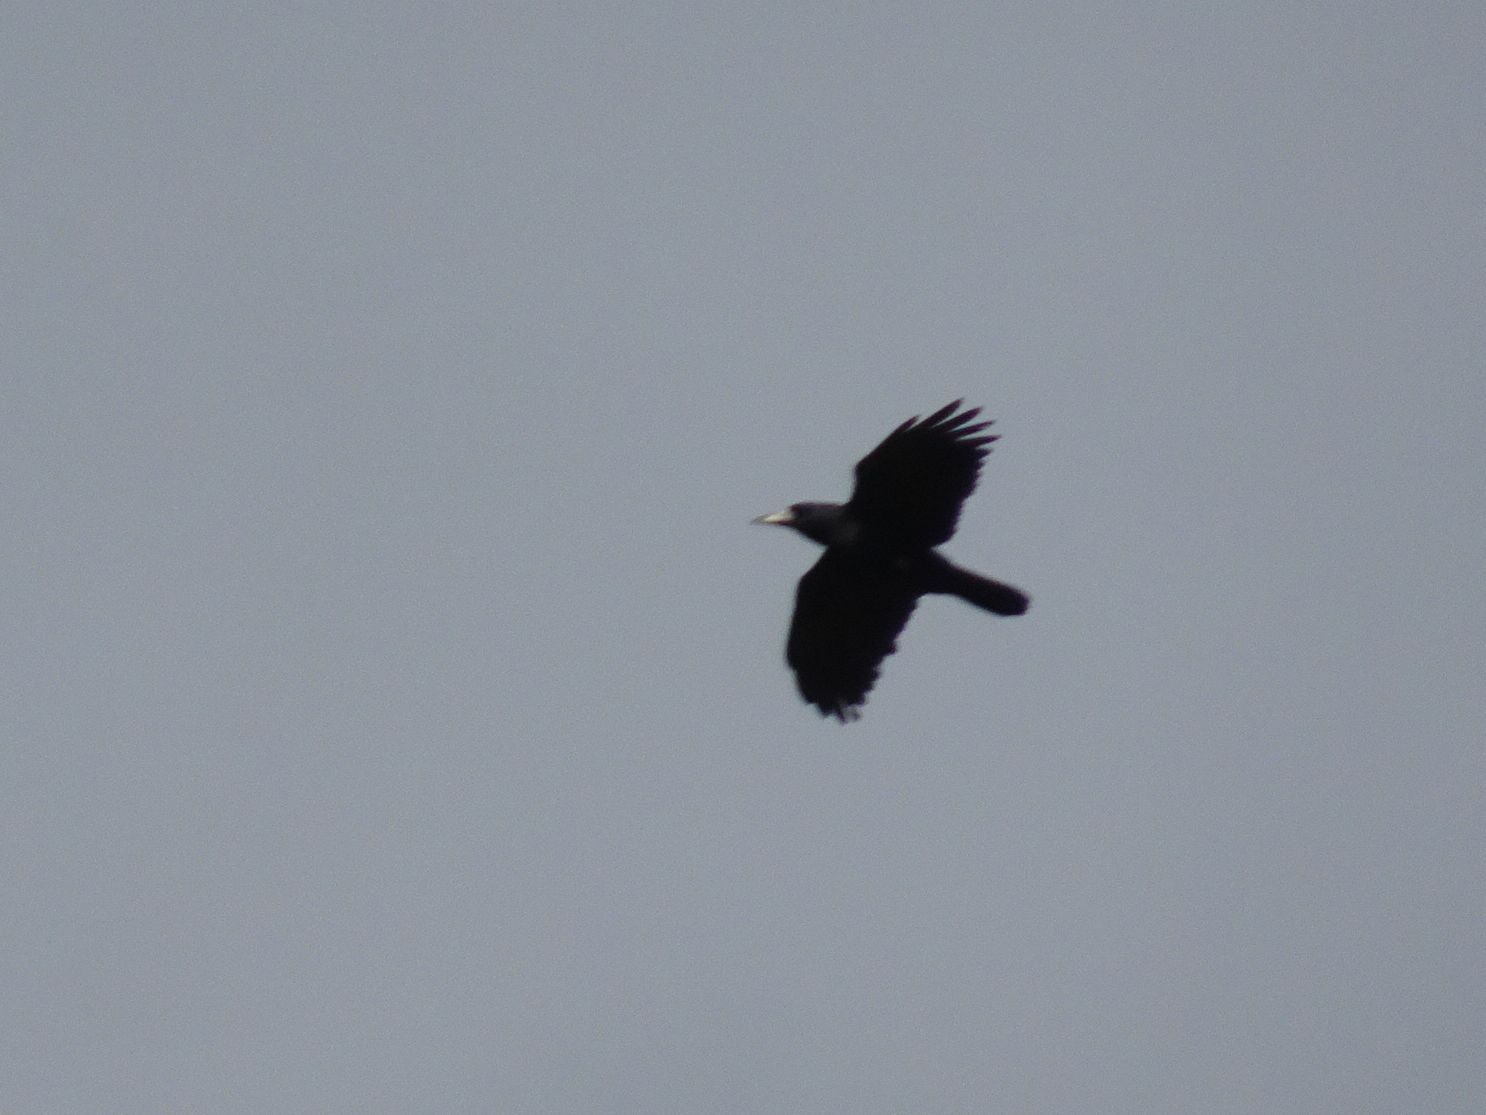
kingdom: Animalia
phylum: Chordata
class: Aves
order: Passeriformes
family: Corvidae
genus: Corvus
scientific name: Corvus frugilegus
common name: Rook
